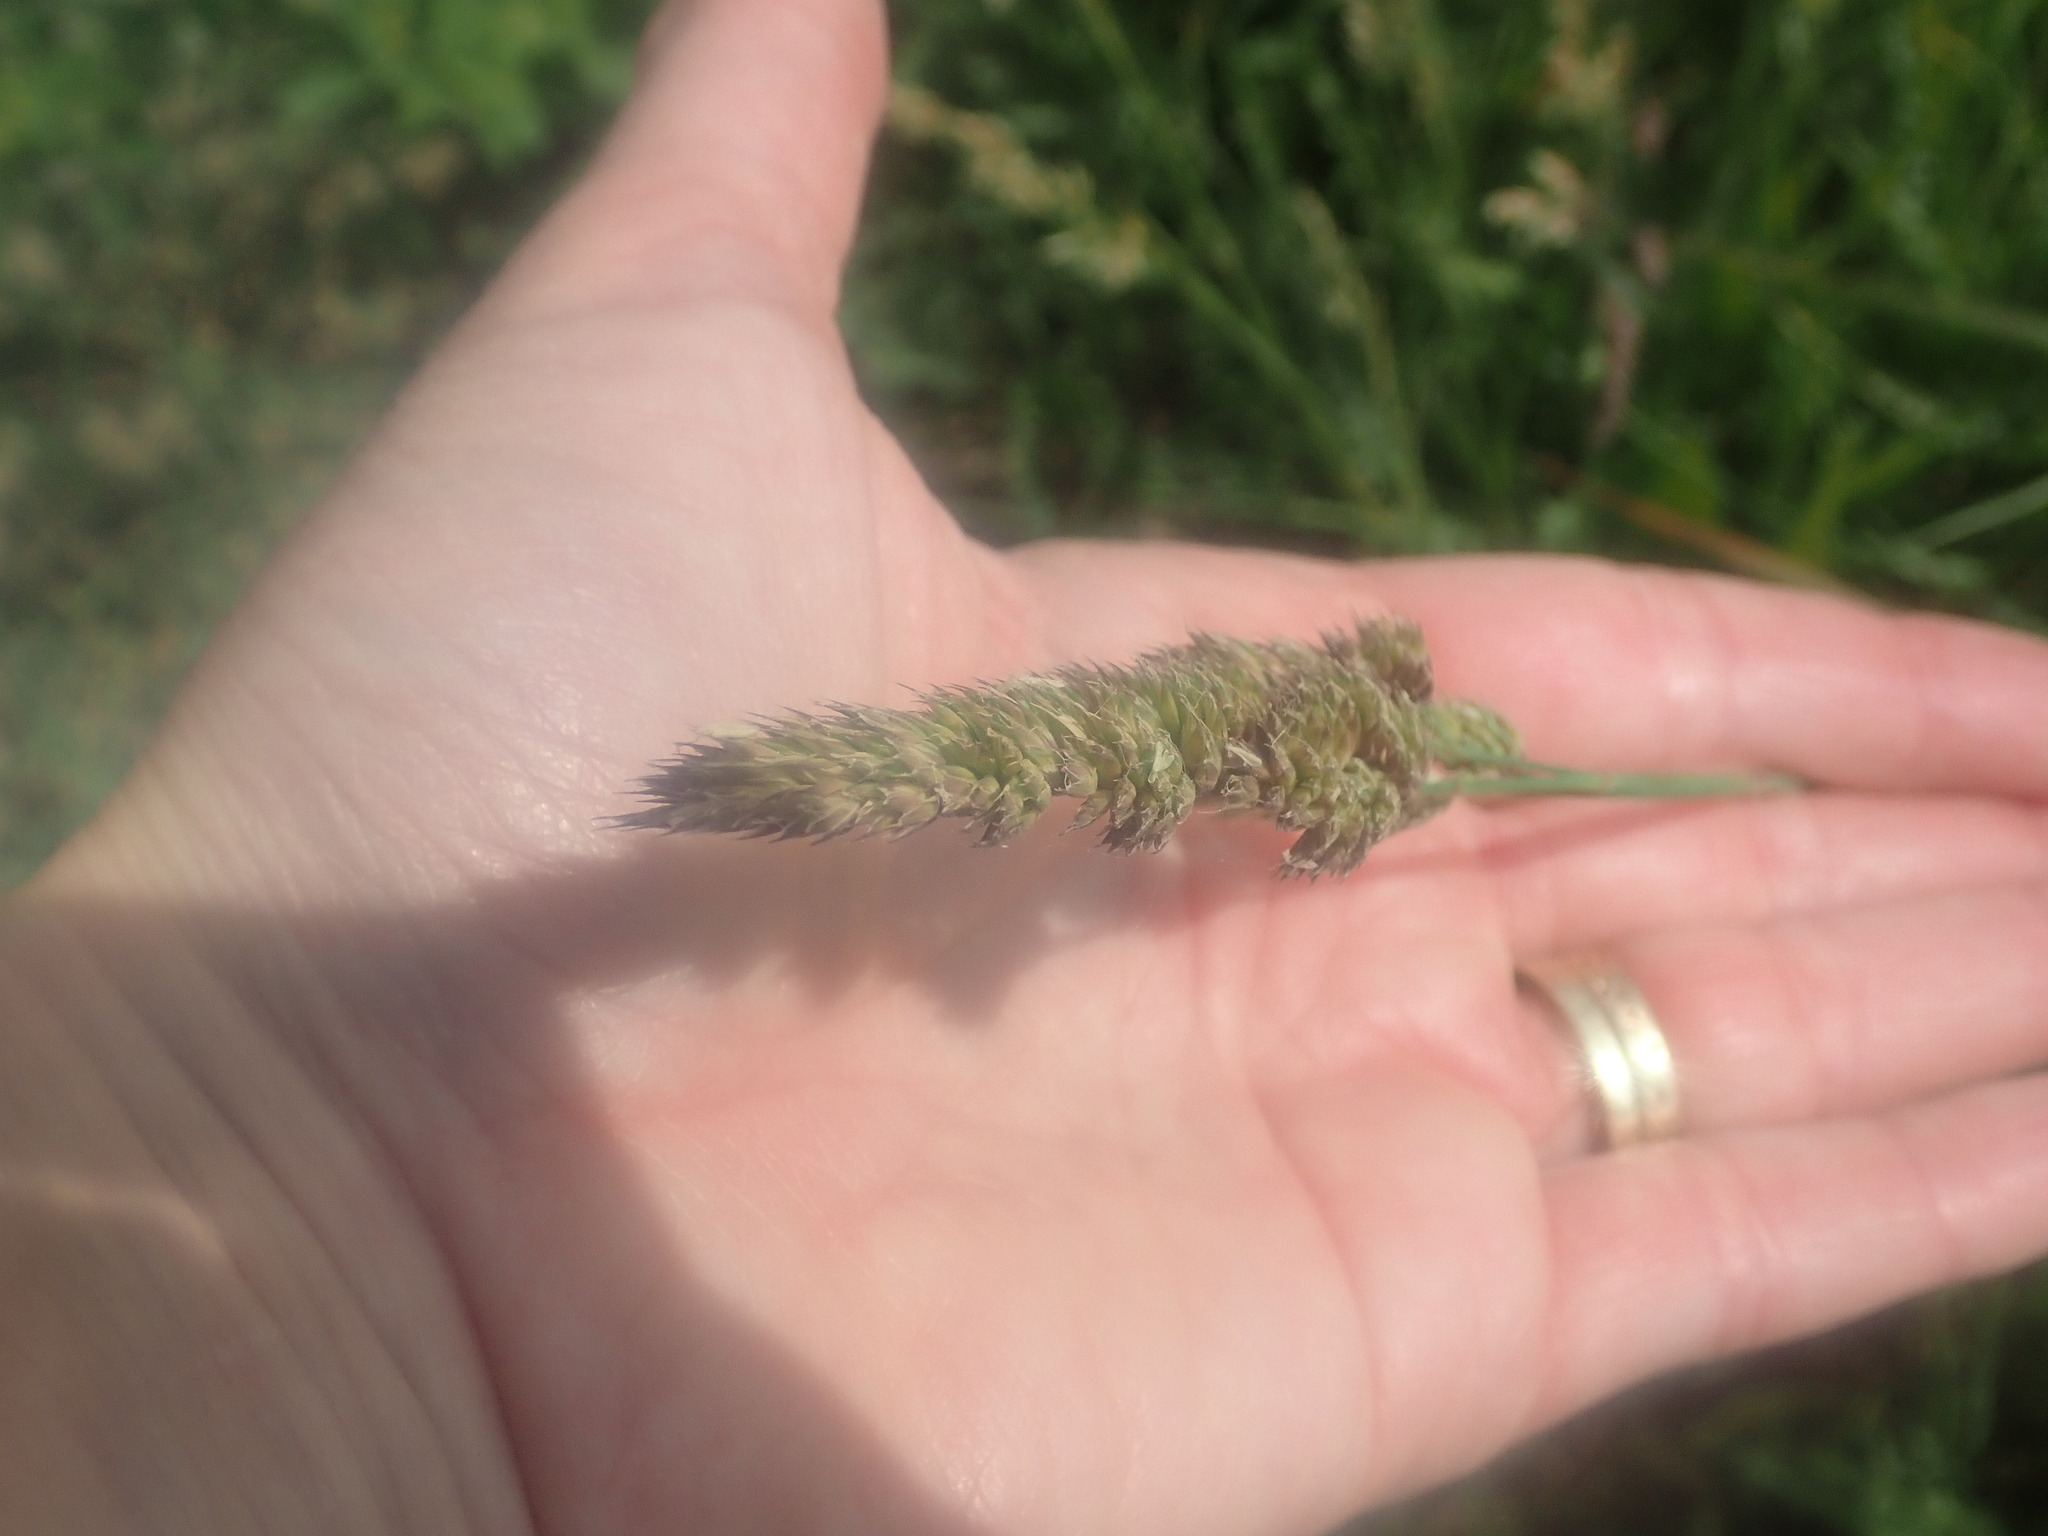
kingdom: Plantae
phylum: Tracheophyta
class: Liliopsida
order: Poales
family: Poaceae
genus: Dactylis
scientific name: Dactylis glomerata
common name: Orchardgrass
